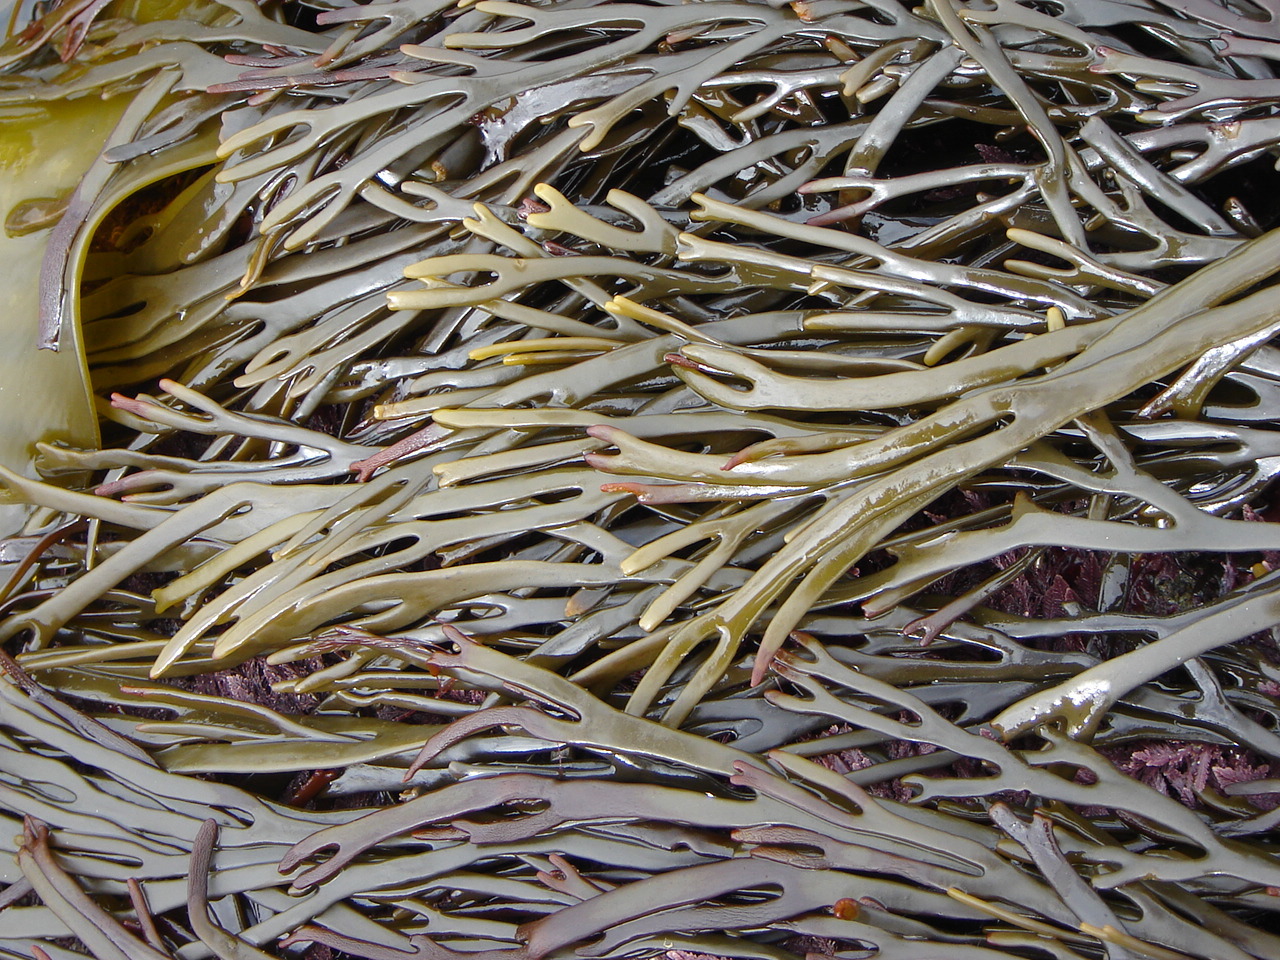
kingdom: Chromista
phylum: Ochrophyta
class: Phaeophyceae
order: Fucales
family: Xiphophoraceae
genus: Xiphophora
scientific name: Xiphophora gladiata
